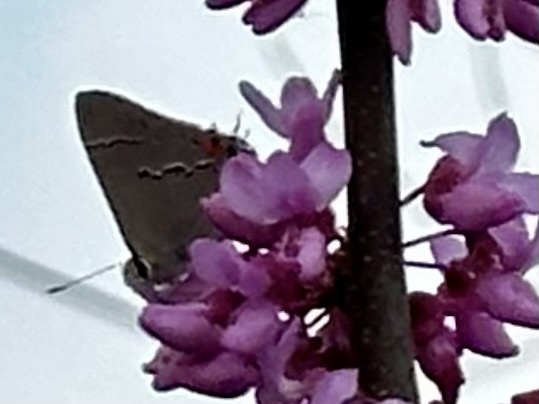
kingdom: Animalia
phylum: Arthropoda
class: Insecta
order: Lepidoptera
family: Lycaenidae
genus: Strymon
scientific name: Strymon melinus
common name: Gray hairstreak
